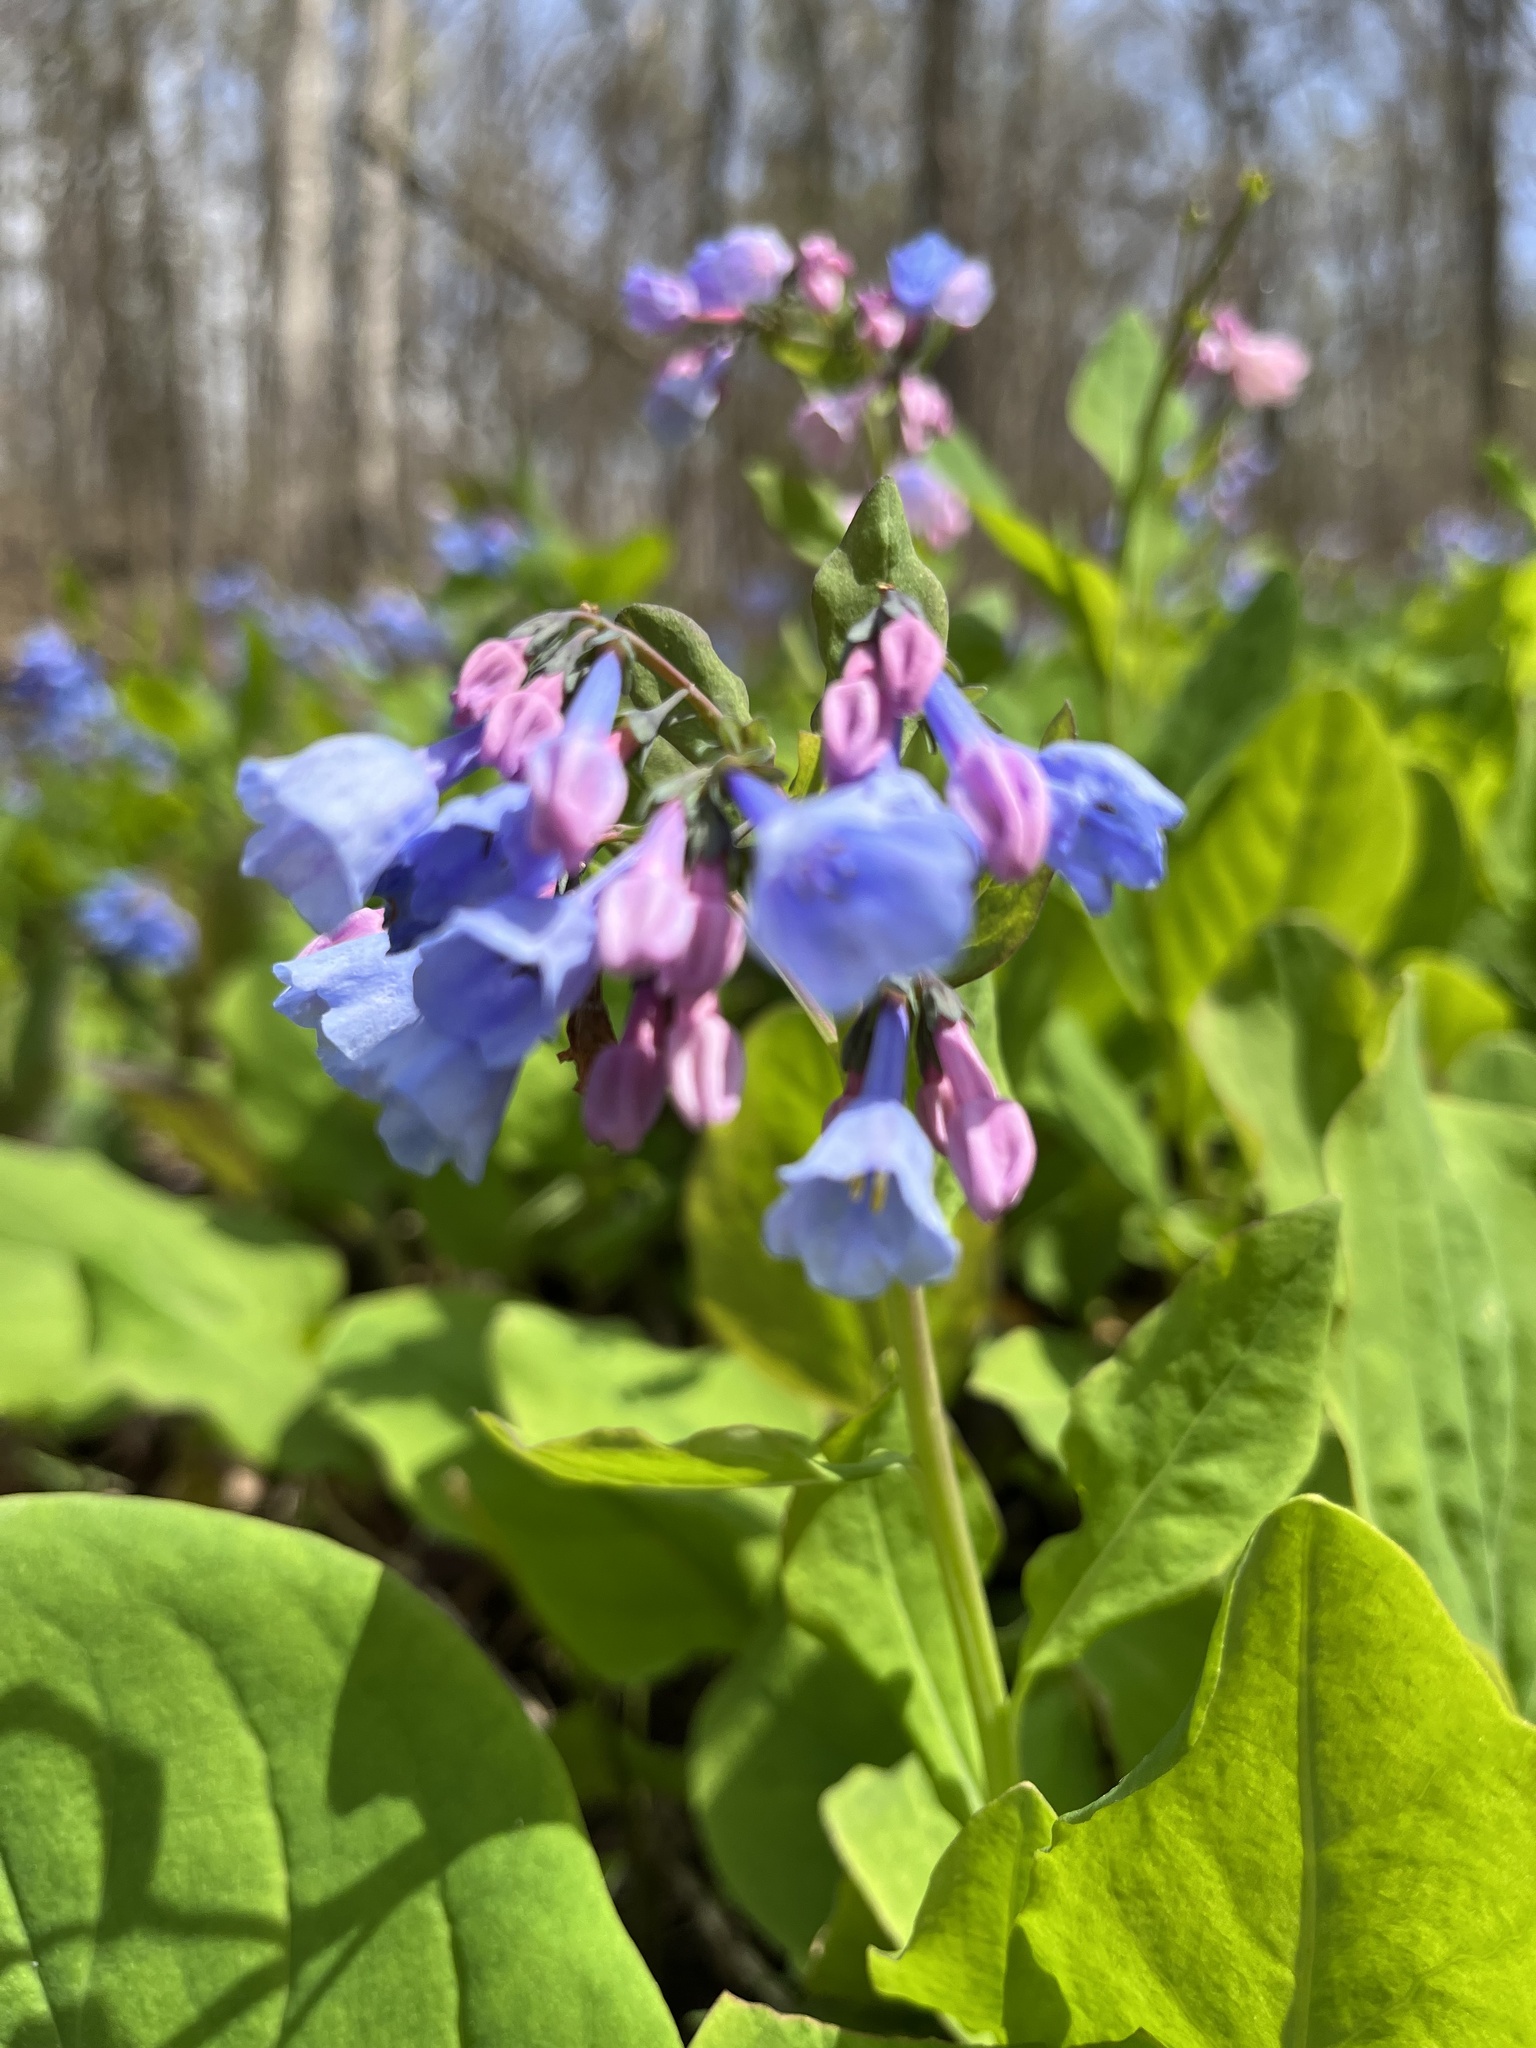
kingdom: Plantae
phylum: Tracheophyta
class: Magnoliopsida
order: Boraginales
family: Boraginaceae
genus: Mertensia
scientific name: Mertensia virginica
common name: Virginia bluebells
